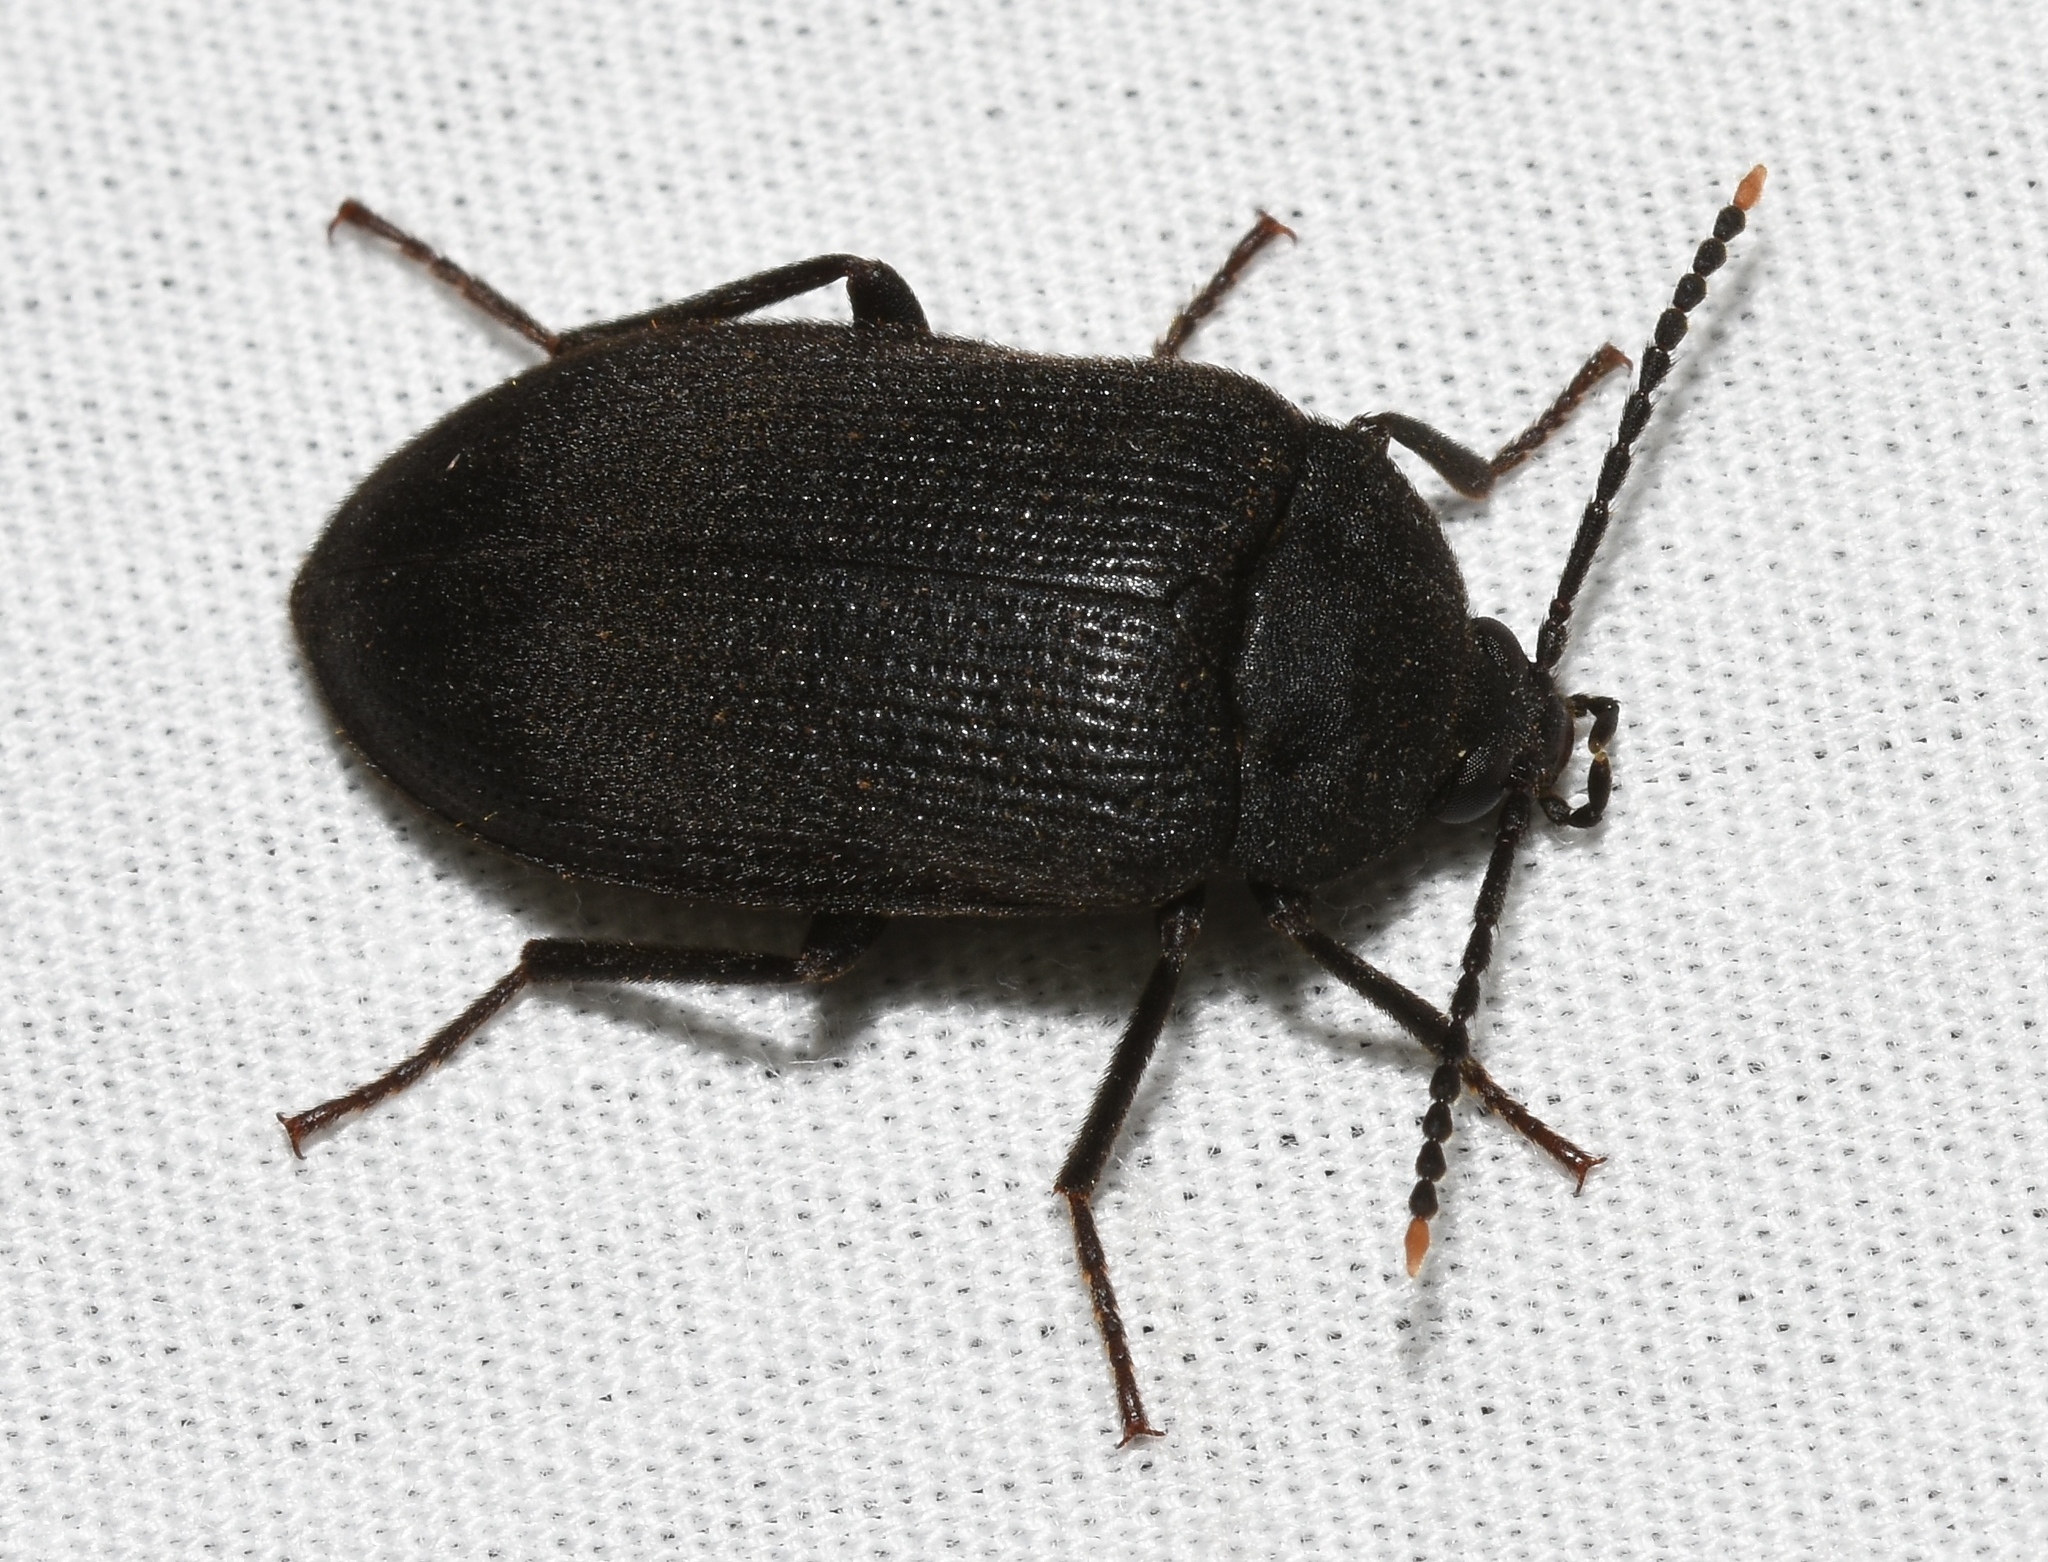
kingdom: Animalia
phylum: Arthropoda
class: Insecta
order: Coleoptera
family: Tetratomidae
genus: Penthe
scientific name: Penthe pimelia
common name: Velvety bark beetle
